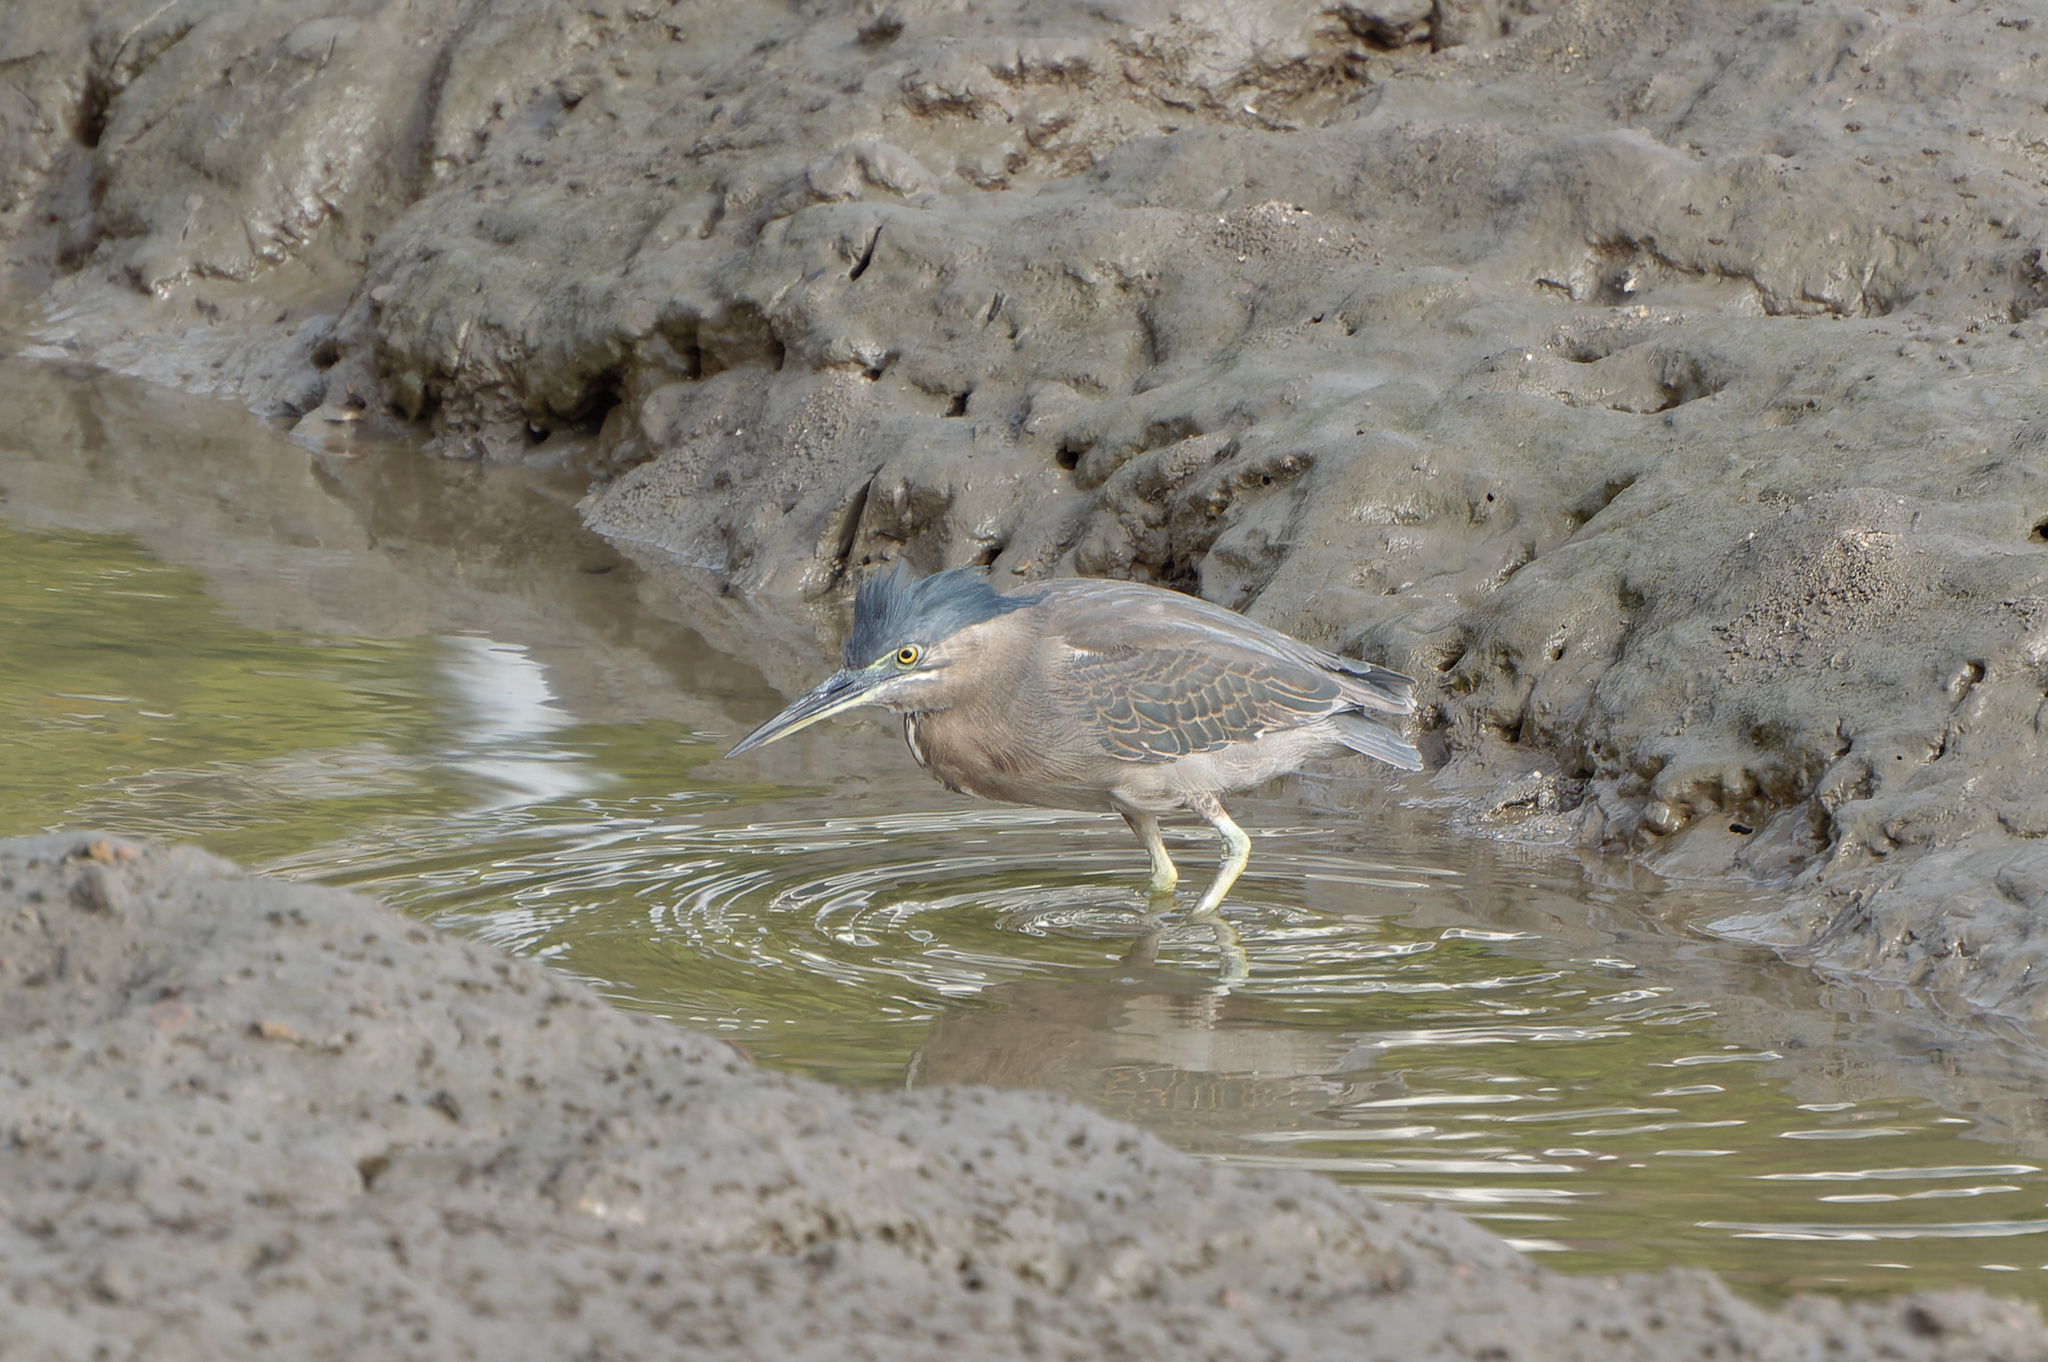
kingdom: Animalia
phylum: Chordata
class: Aves
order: Pelecaniformes
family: Ardeidae
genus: Butorides
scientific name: Butorides striata
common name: Striated heron
